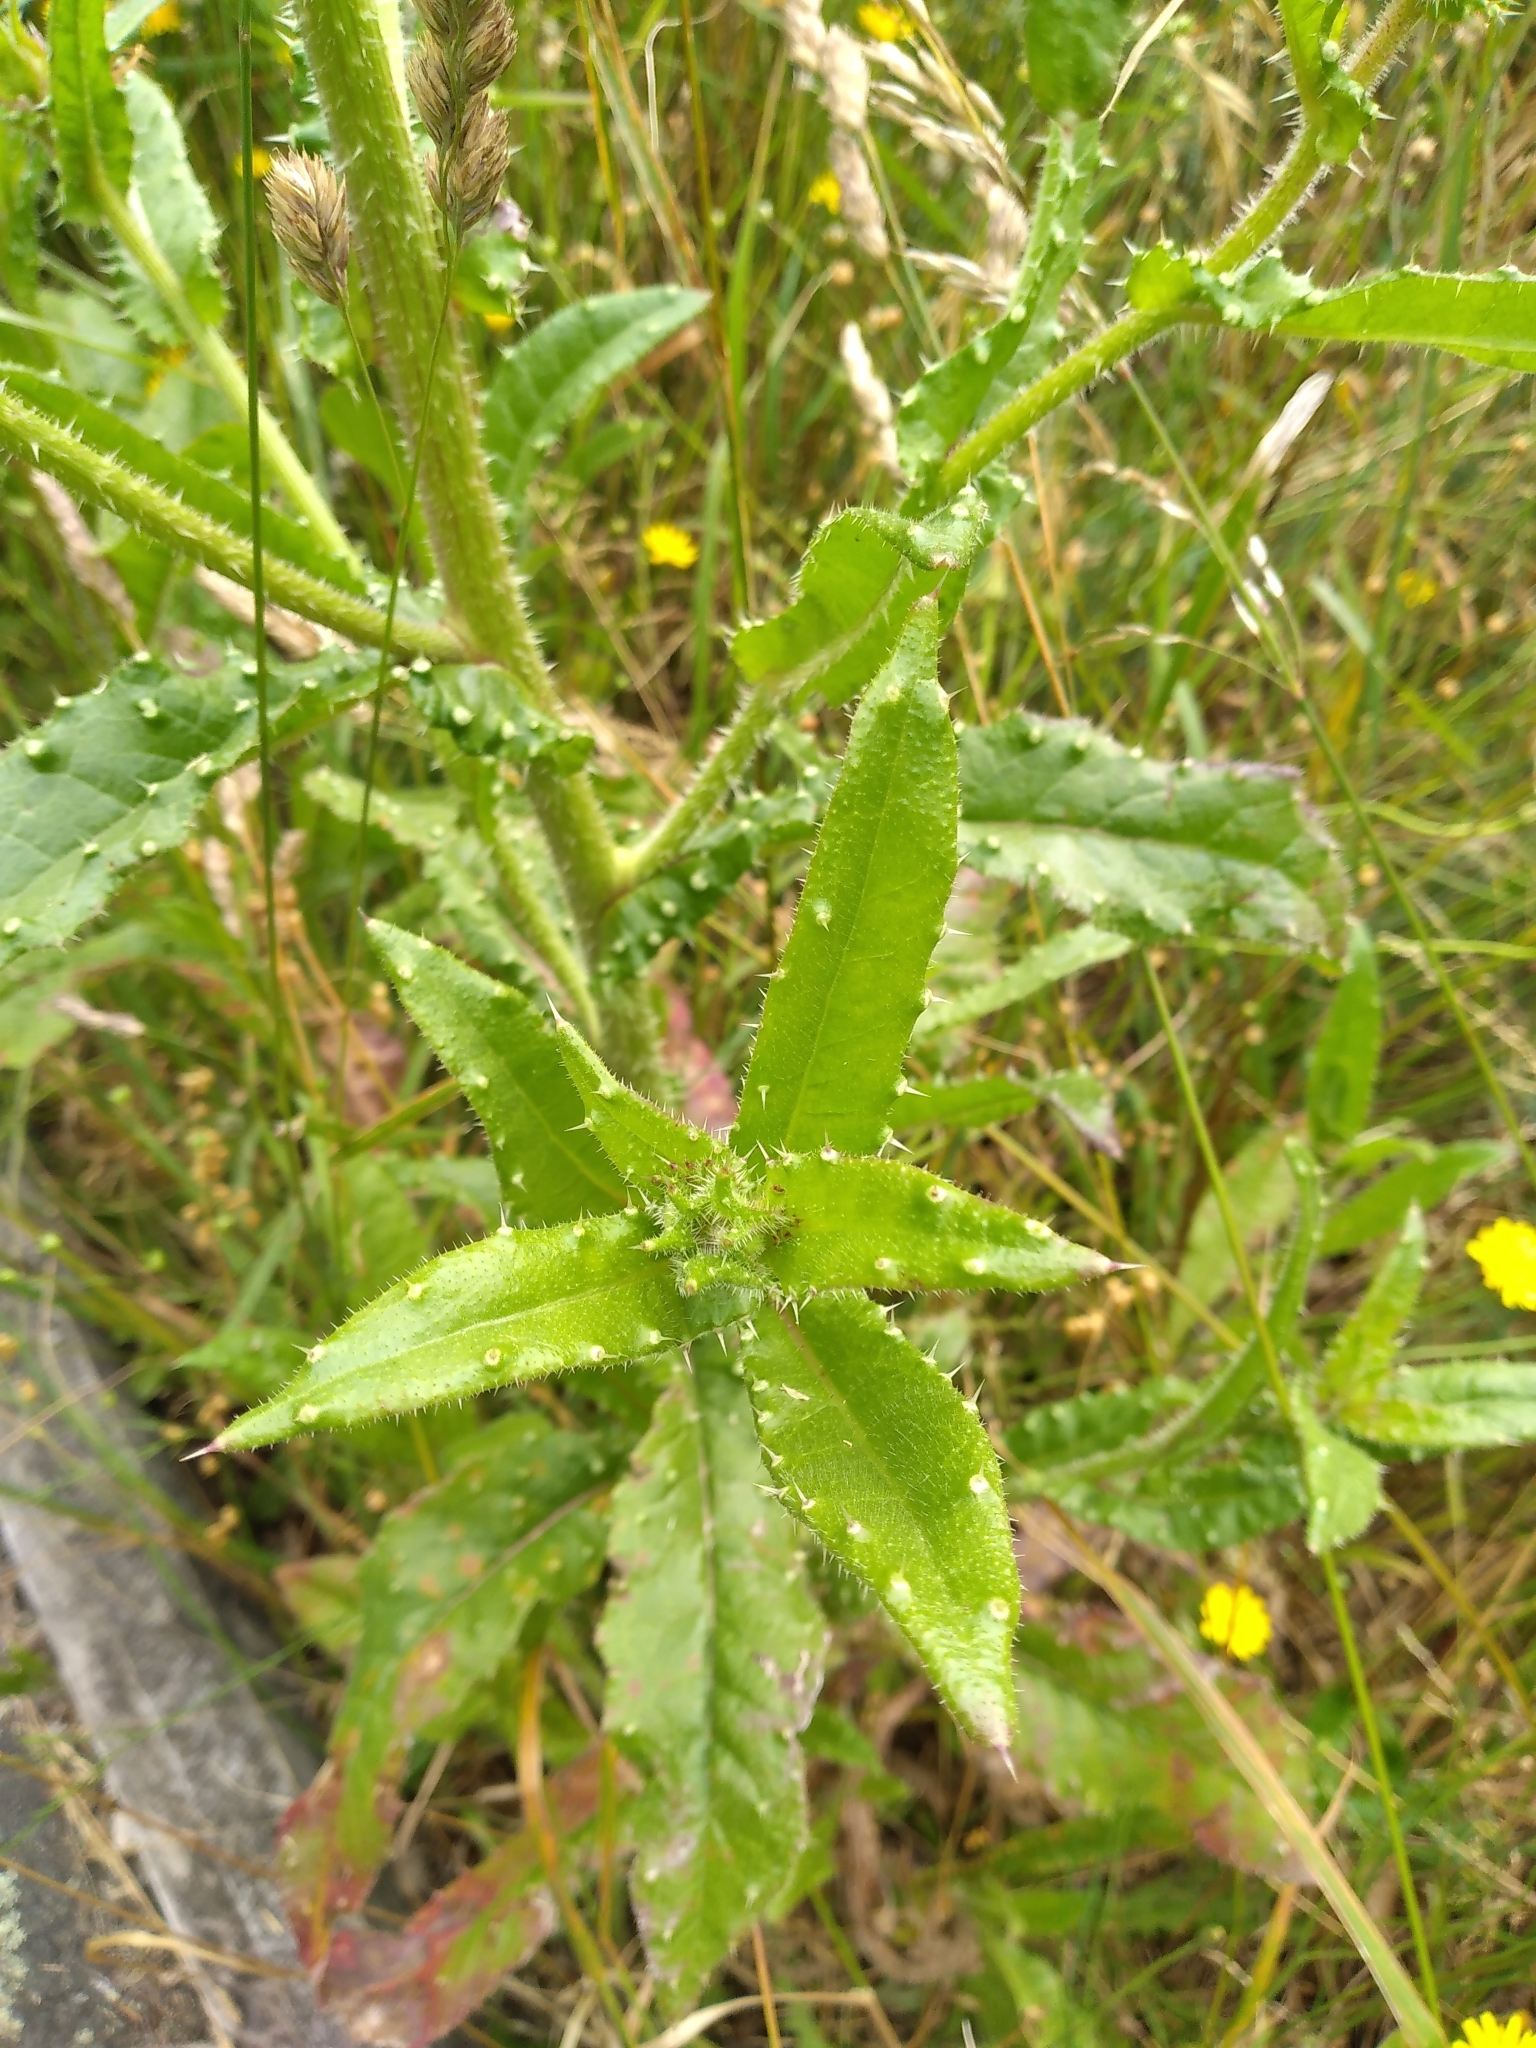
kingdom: Plantae
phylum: Tracheophyta
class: Magnoliopsida
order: Asterales
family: Asteraceae
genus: Helminthotheca
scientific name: Helminthotheca echioides
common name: Ox-tongue
